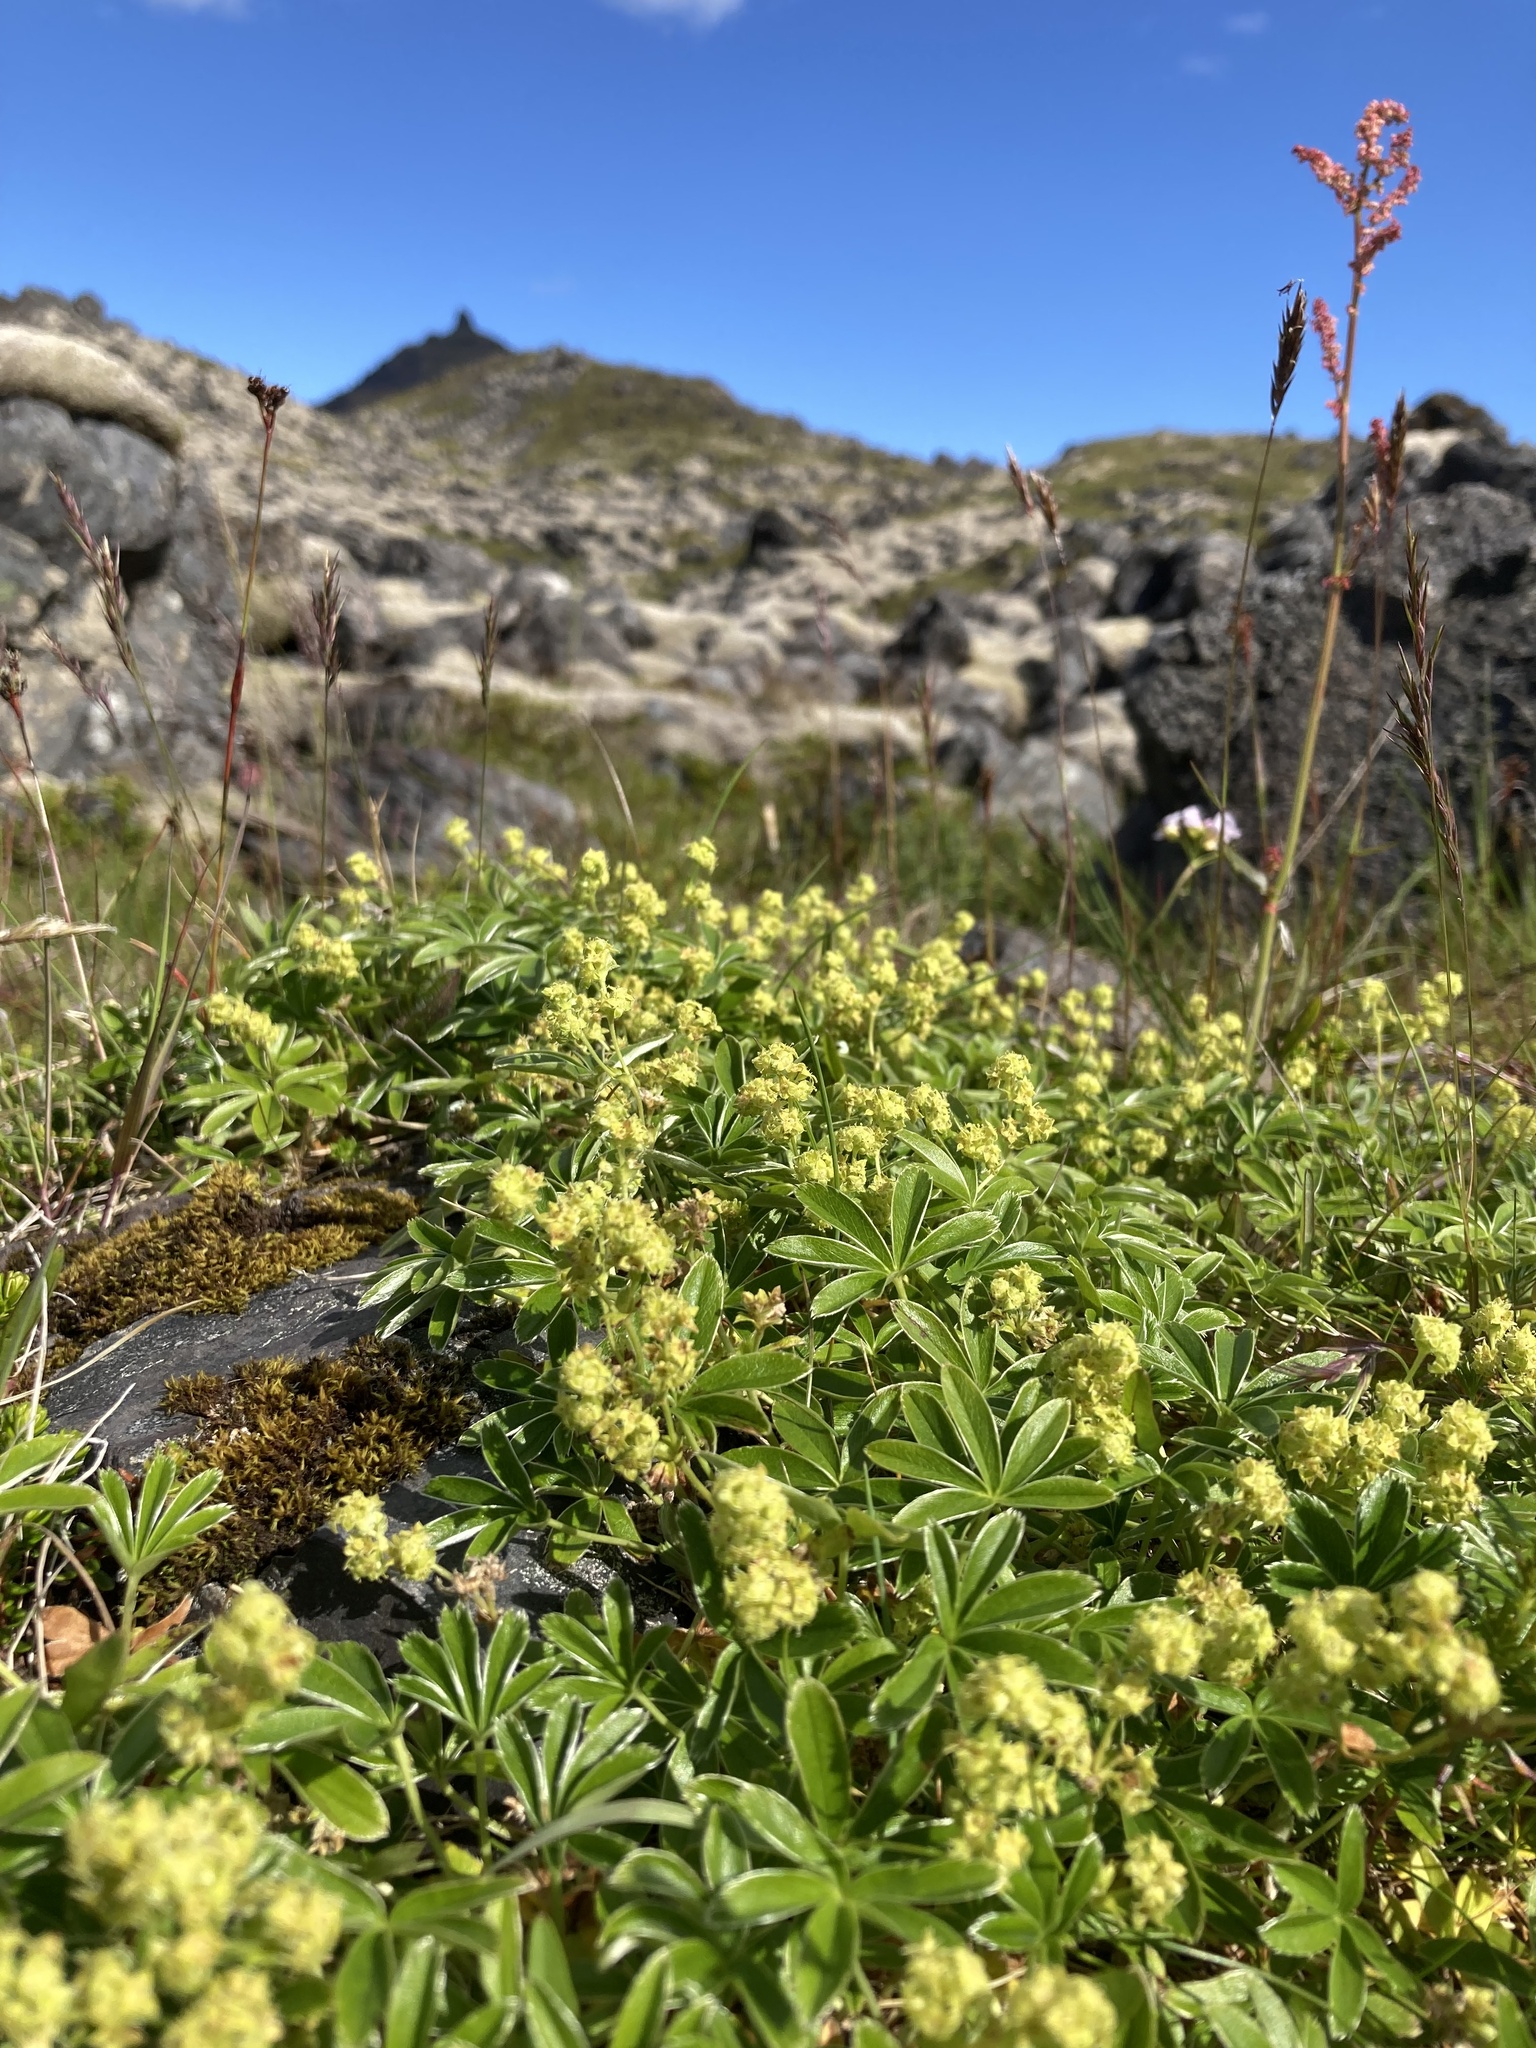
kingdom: Plantae
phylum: Tracheophyta
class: Magnoliopsida
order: Rosales
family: Rosaceae
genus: Alchemilla
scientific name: Alchemilla alpina
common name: Alpine lady's-mantle
